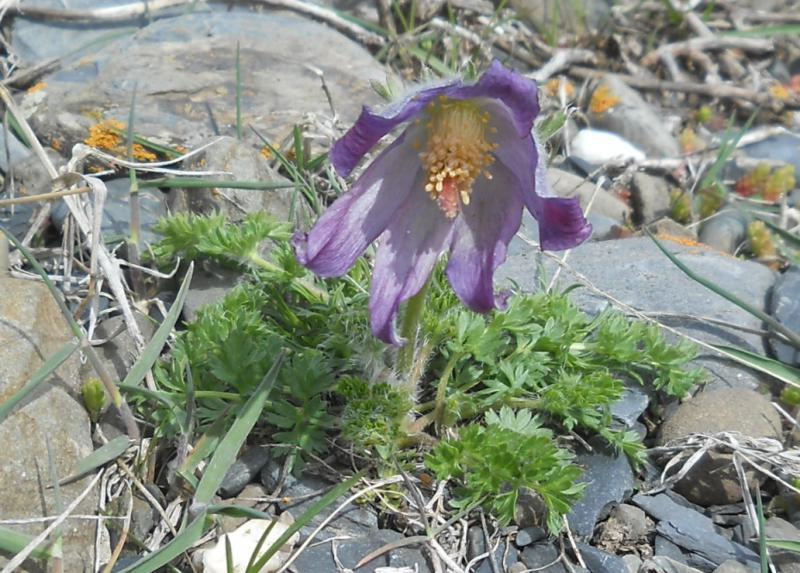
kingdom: Plantae
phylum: Tracheophyta
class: Magnoliopsida
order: Ranunculales
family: Ranunculaceae
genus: Pulsatilla
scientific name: Pulsatilla violacea
